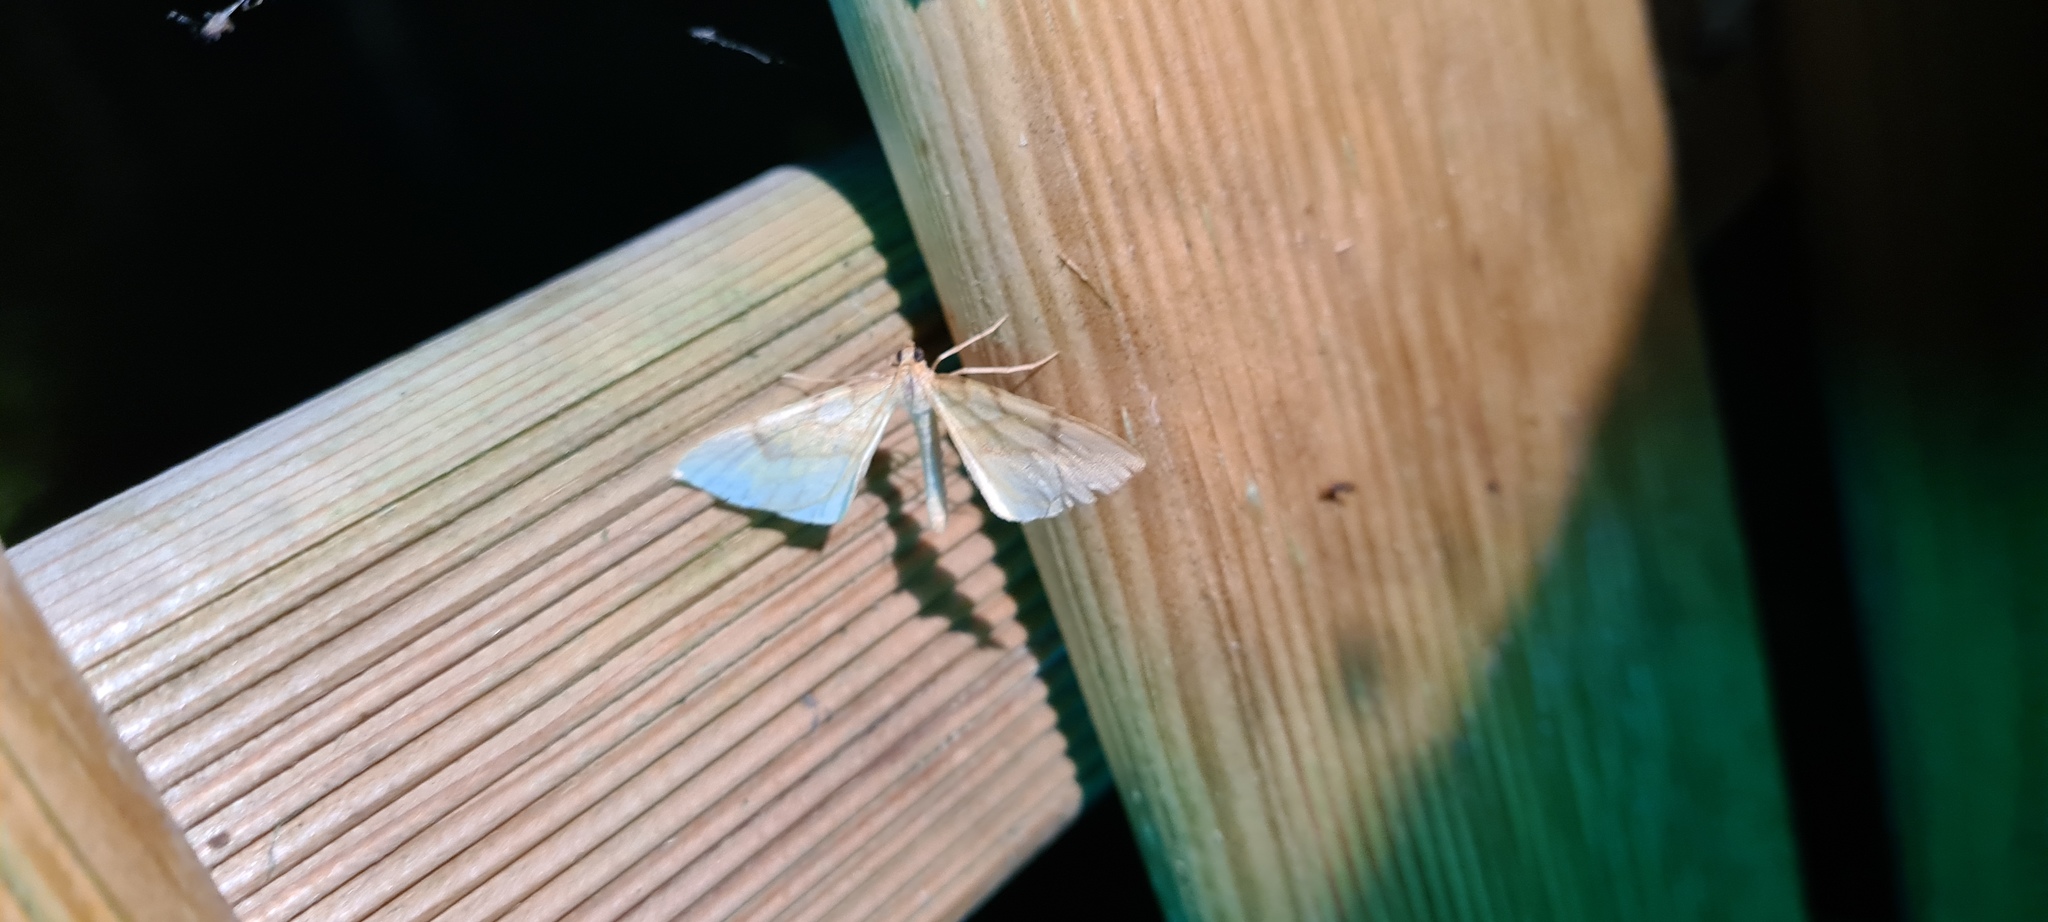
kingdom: Animalia
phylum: Arthropoda
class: Insecta
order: Lepidoptera
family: Geometridae
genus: Eulithis
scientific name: Eulithis pyraliata
